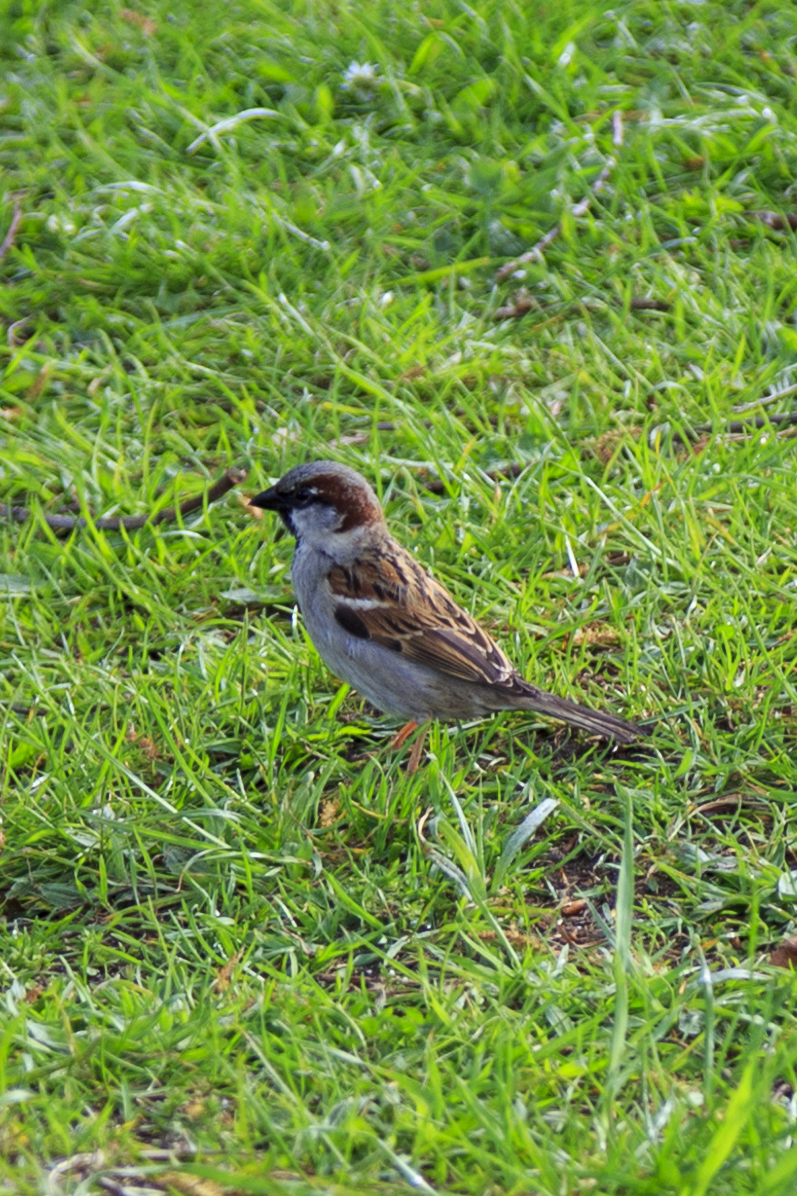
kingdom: Animalia
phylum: Chordata
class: Aves
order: Passeriformes
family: Passeridae
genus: Passer
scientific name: Passer domesticus
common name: House sparrow
